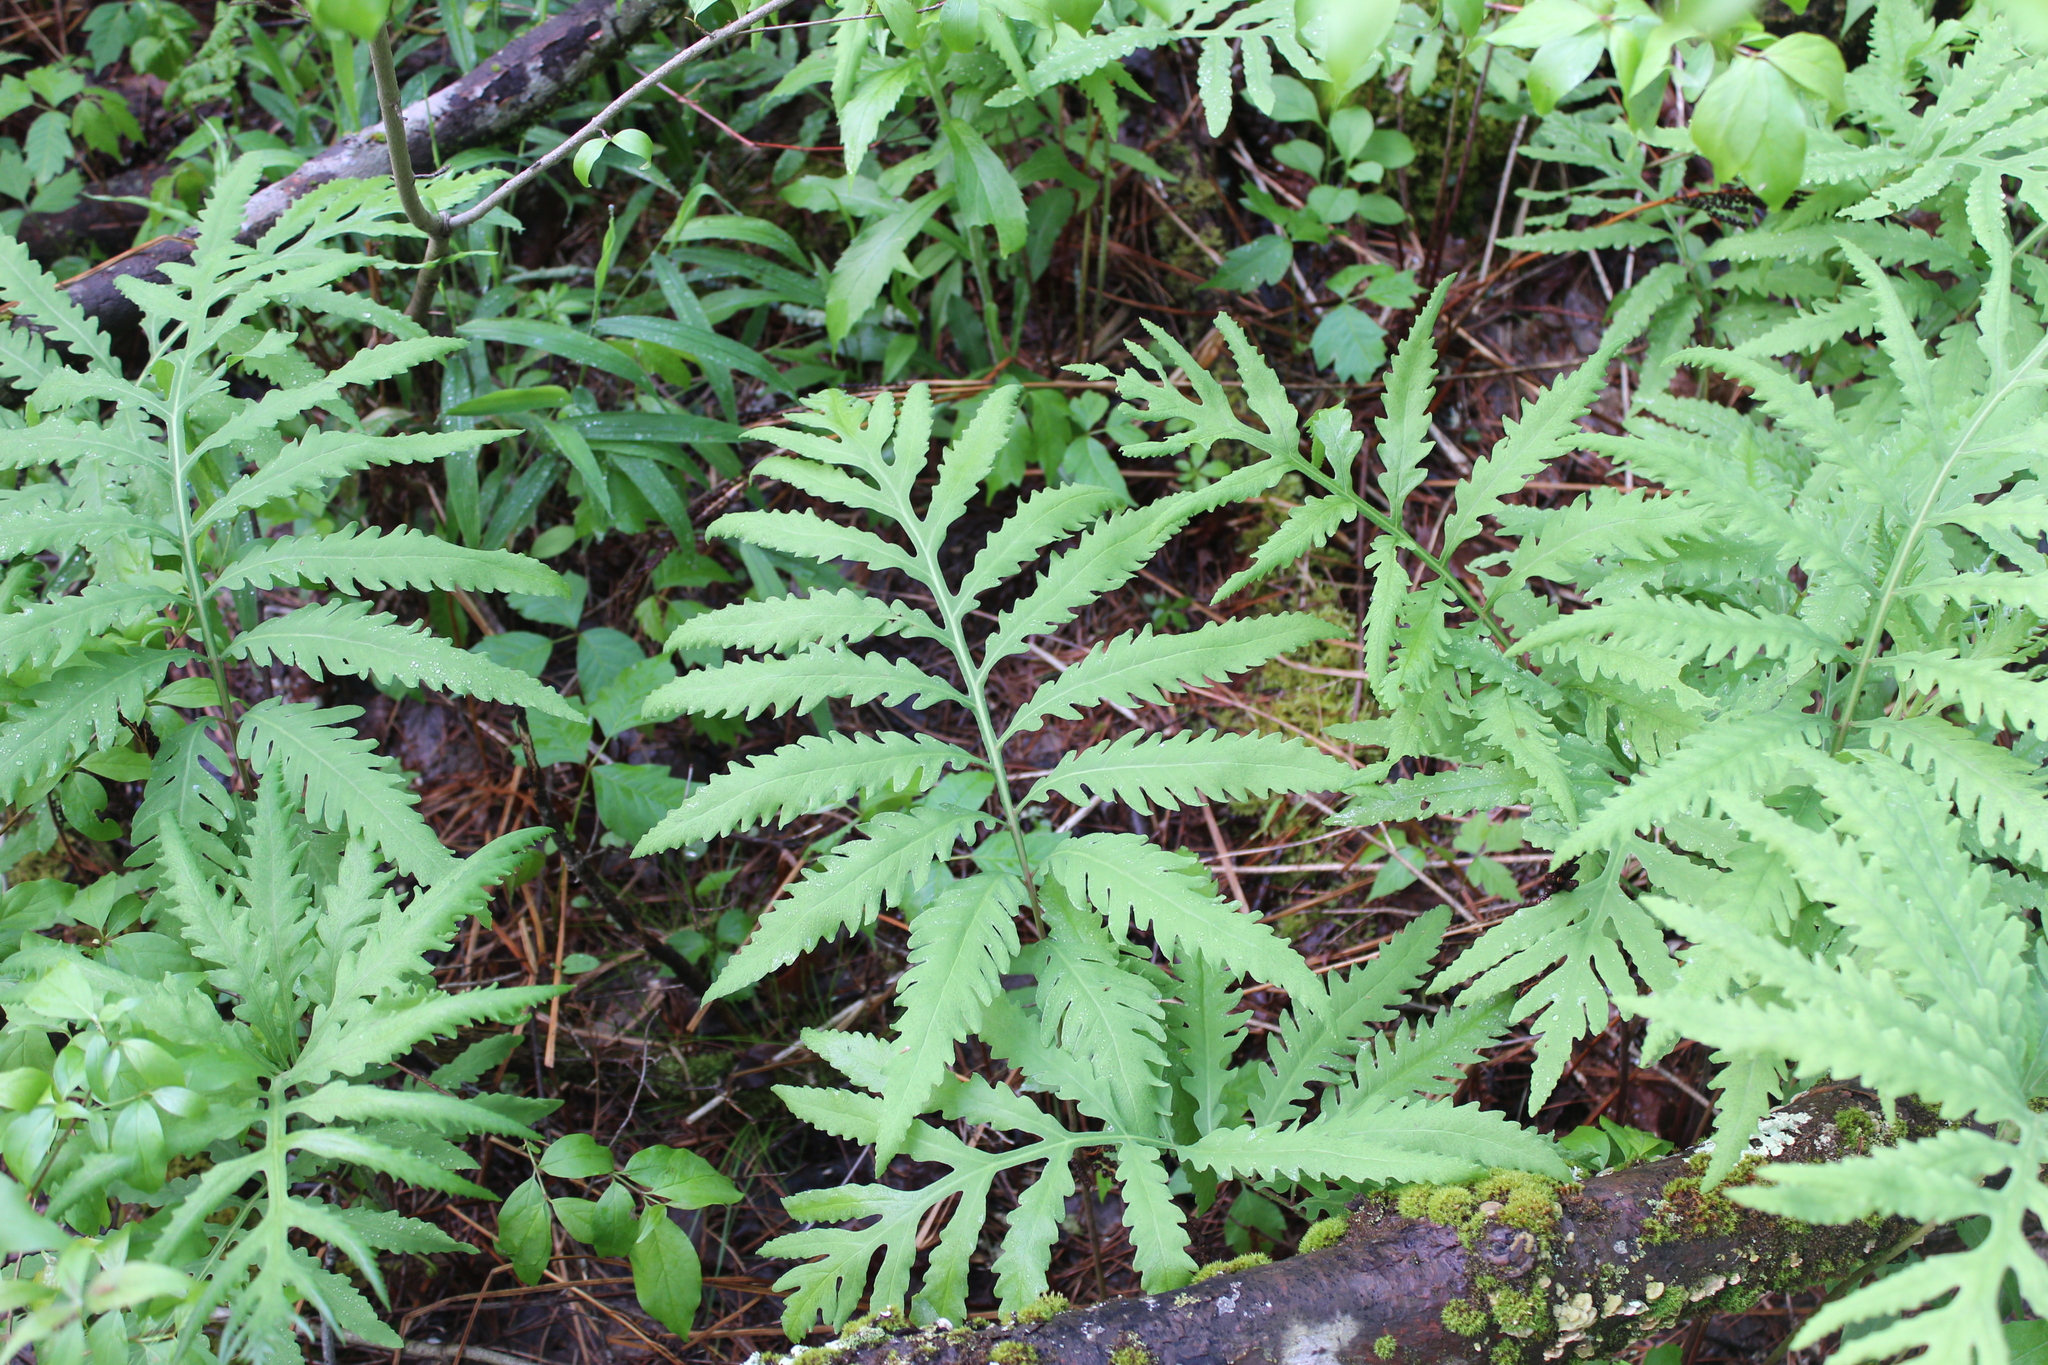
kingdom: Plantae
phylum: Tracheophyta
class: Polypodiopsida
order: Polypodiales
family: Onocleaceae
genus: Onoclea
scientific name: Onoclea sensibilis
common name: Sensitive fern
